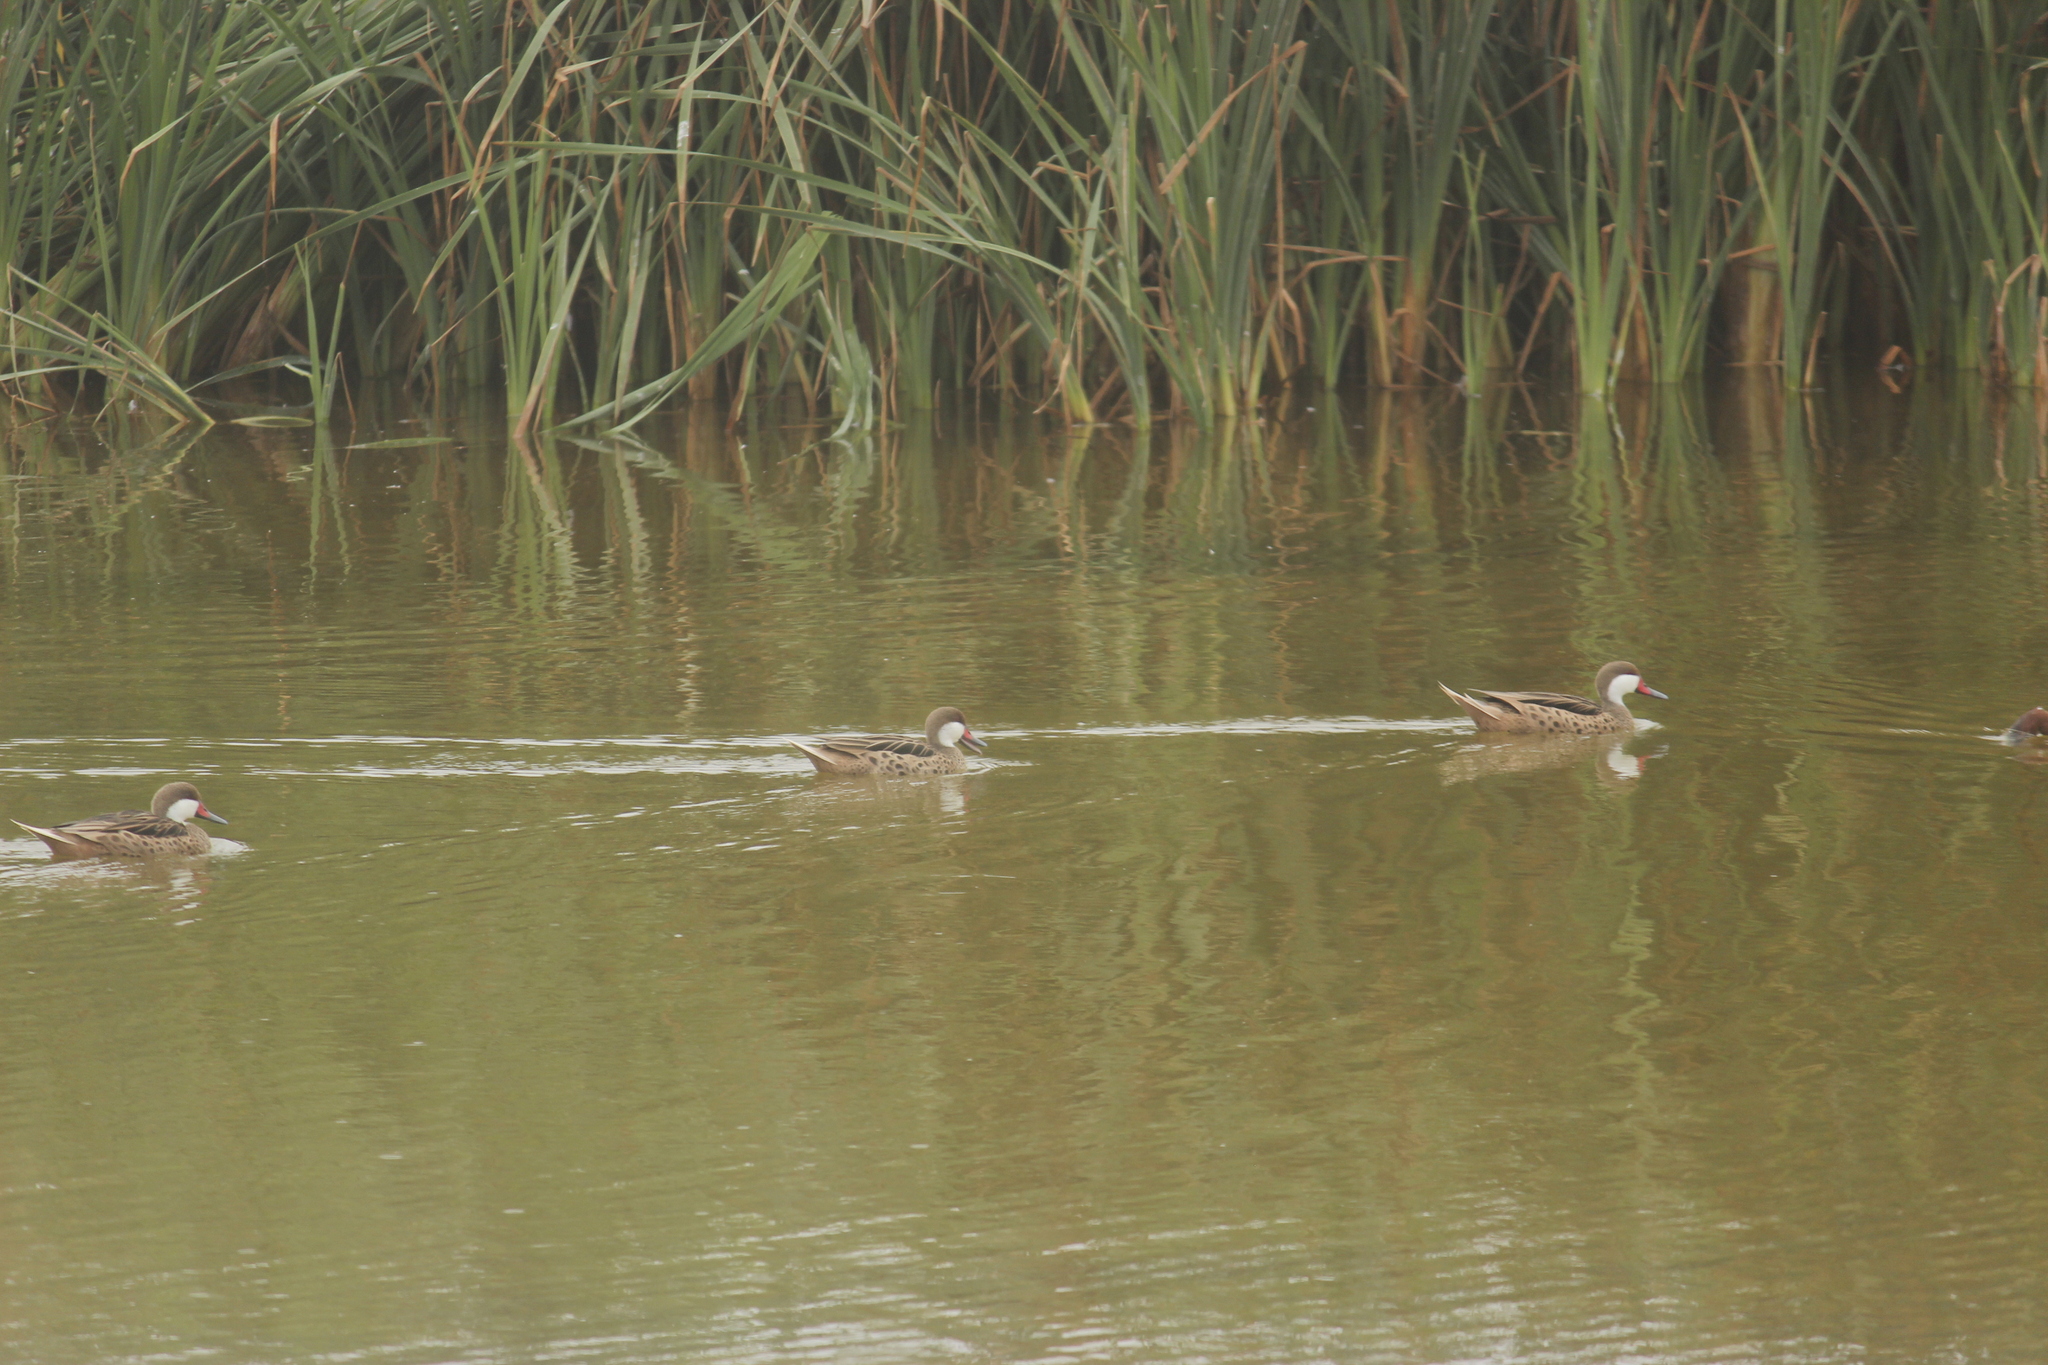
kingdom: Animalia
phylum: Chordata
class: Aves
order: Anseriformes
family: Anatidae
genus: Anas
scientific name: Anas bahamensis
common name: White-cheeked pintail
